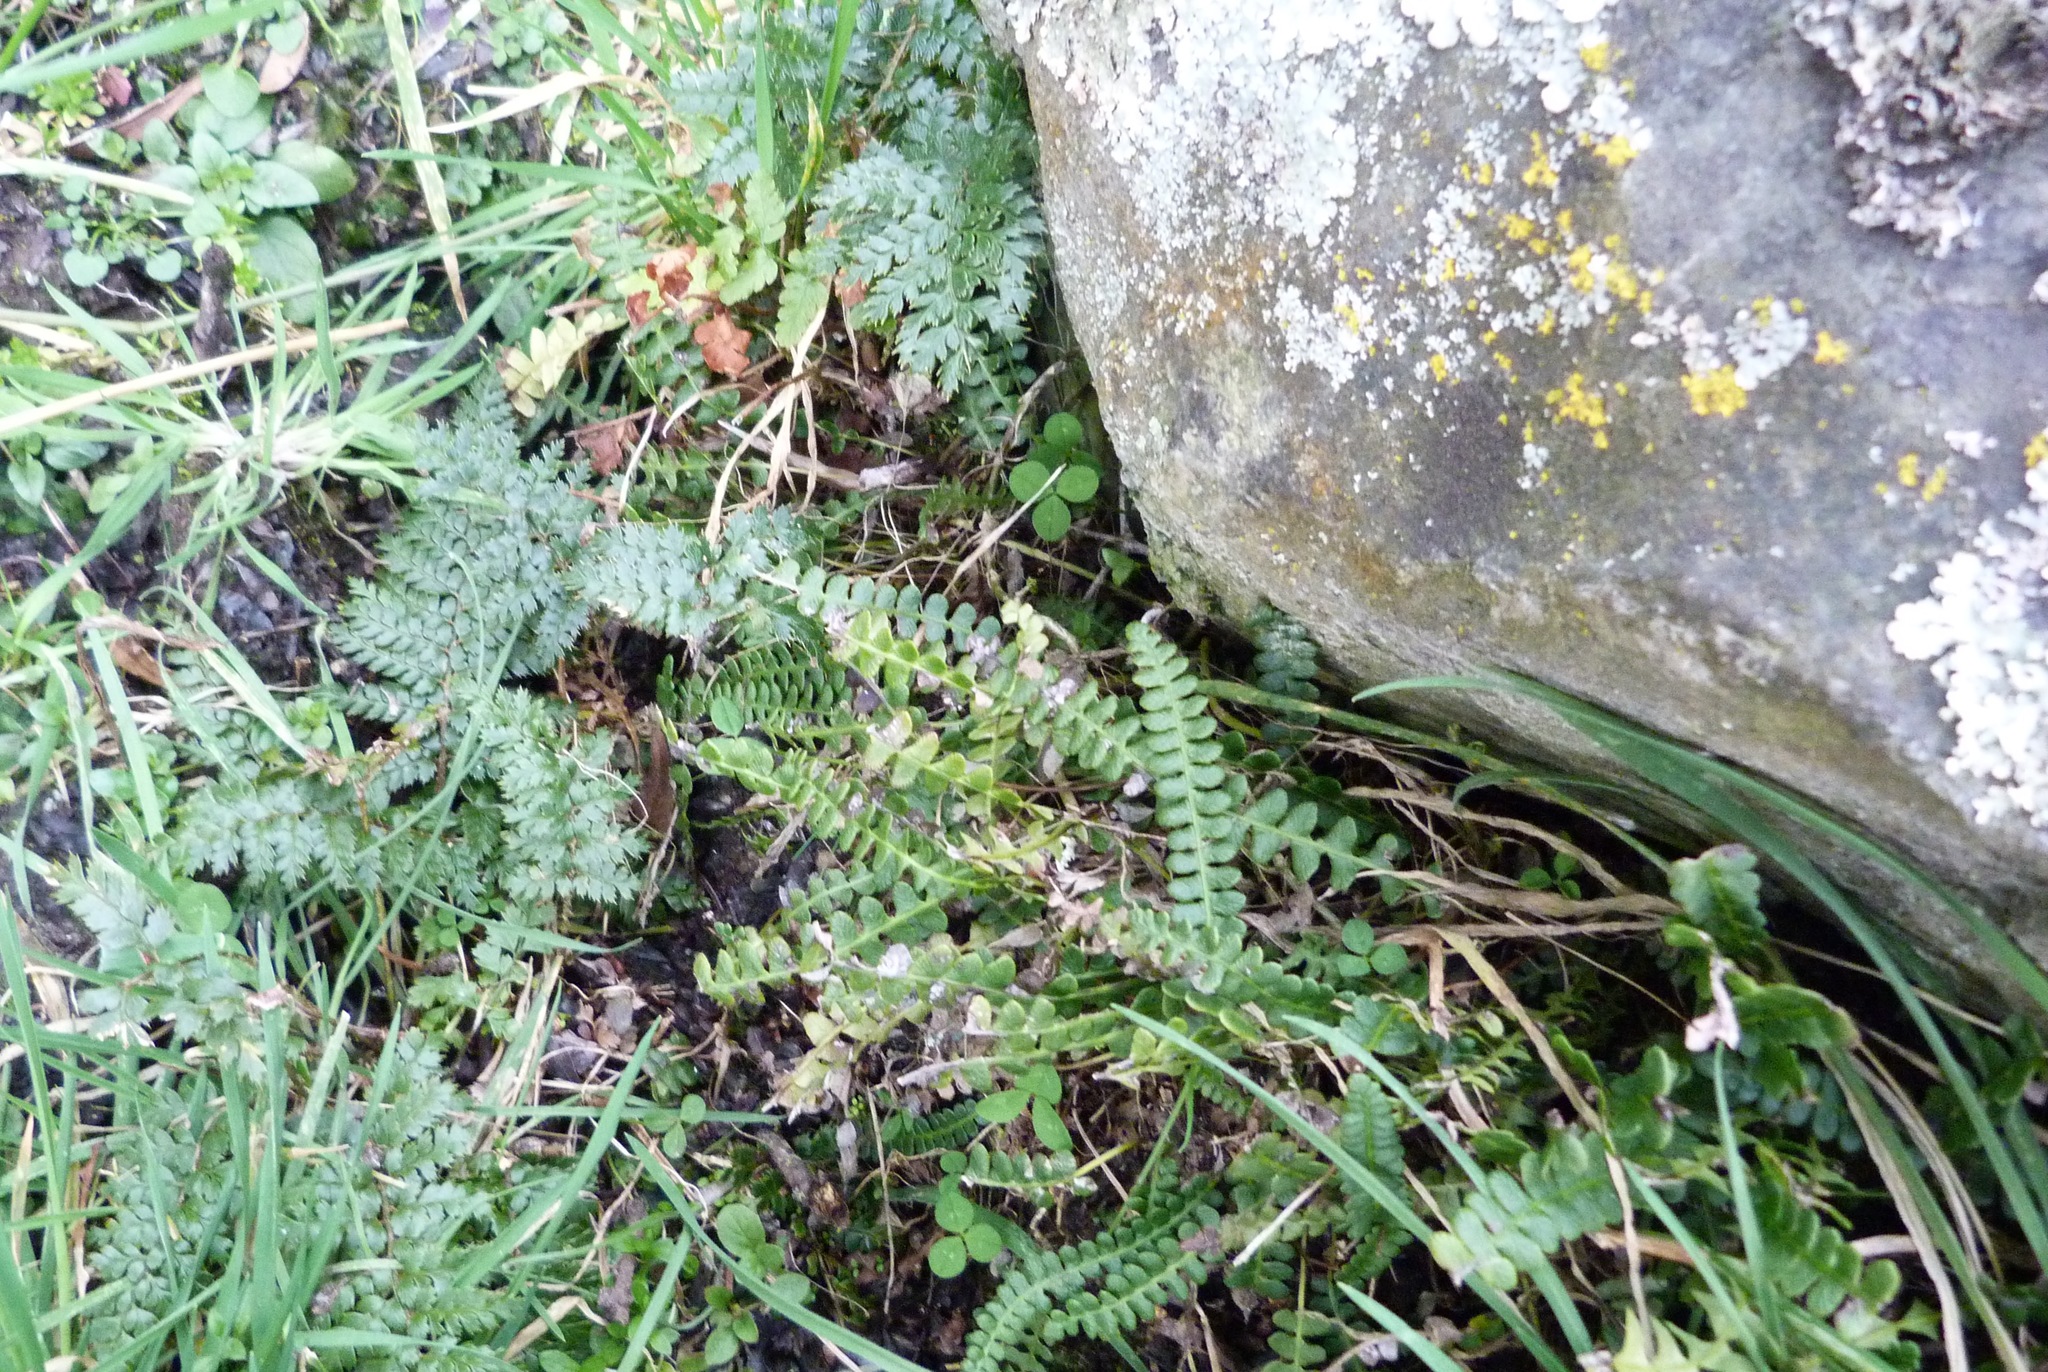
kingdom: Plantae
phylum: Tracheophyta
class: Polypodiopsida
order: Polypodiales
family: Blechnaceae
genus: Austroblechnum
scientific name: Austroblechnum penna-marina
